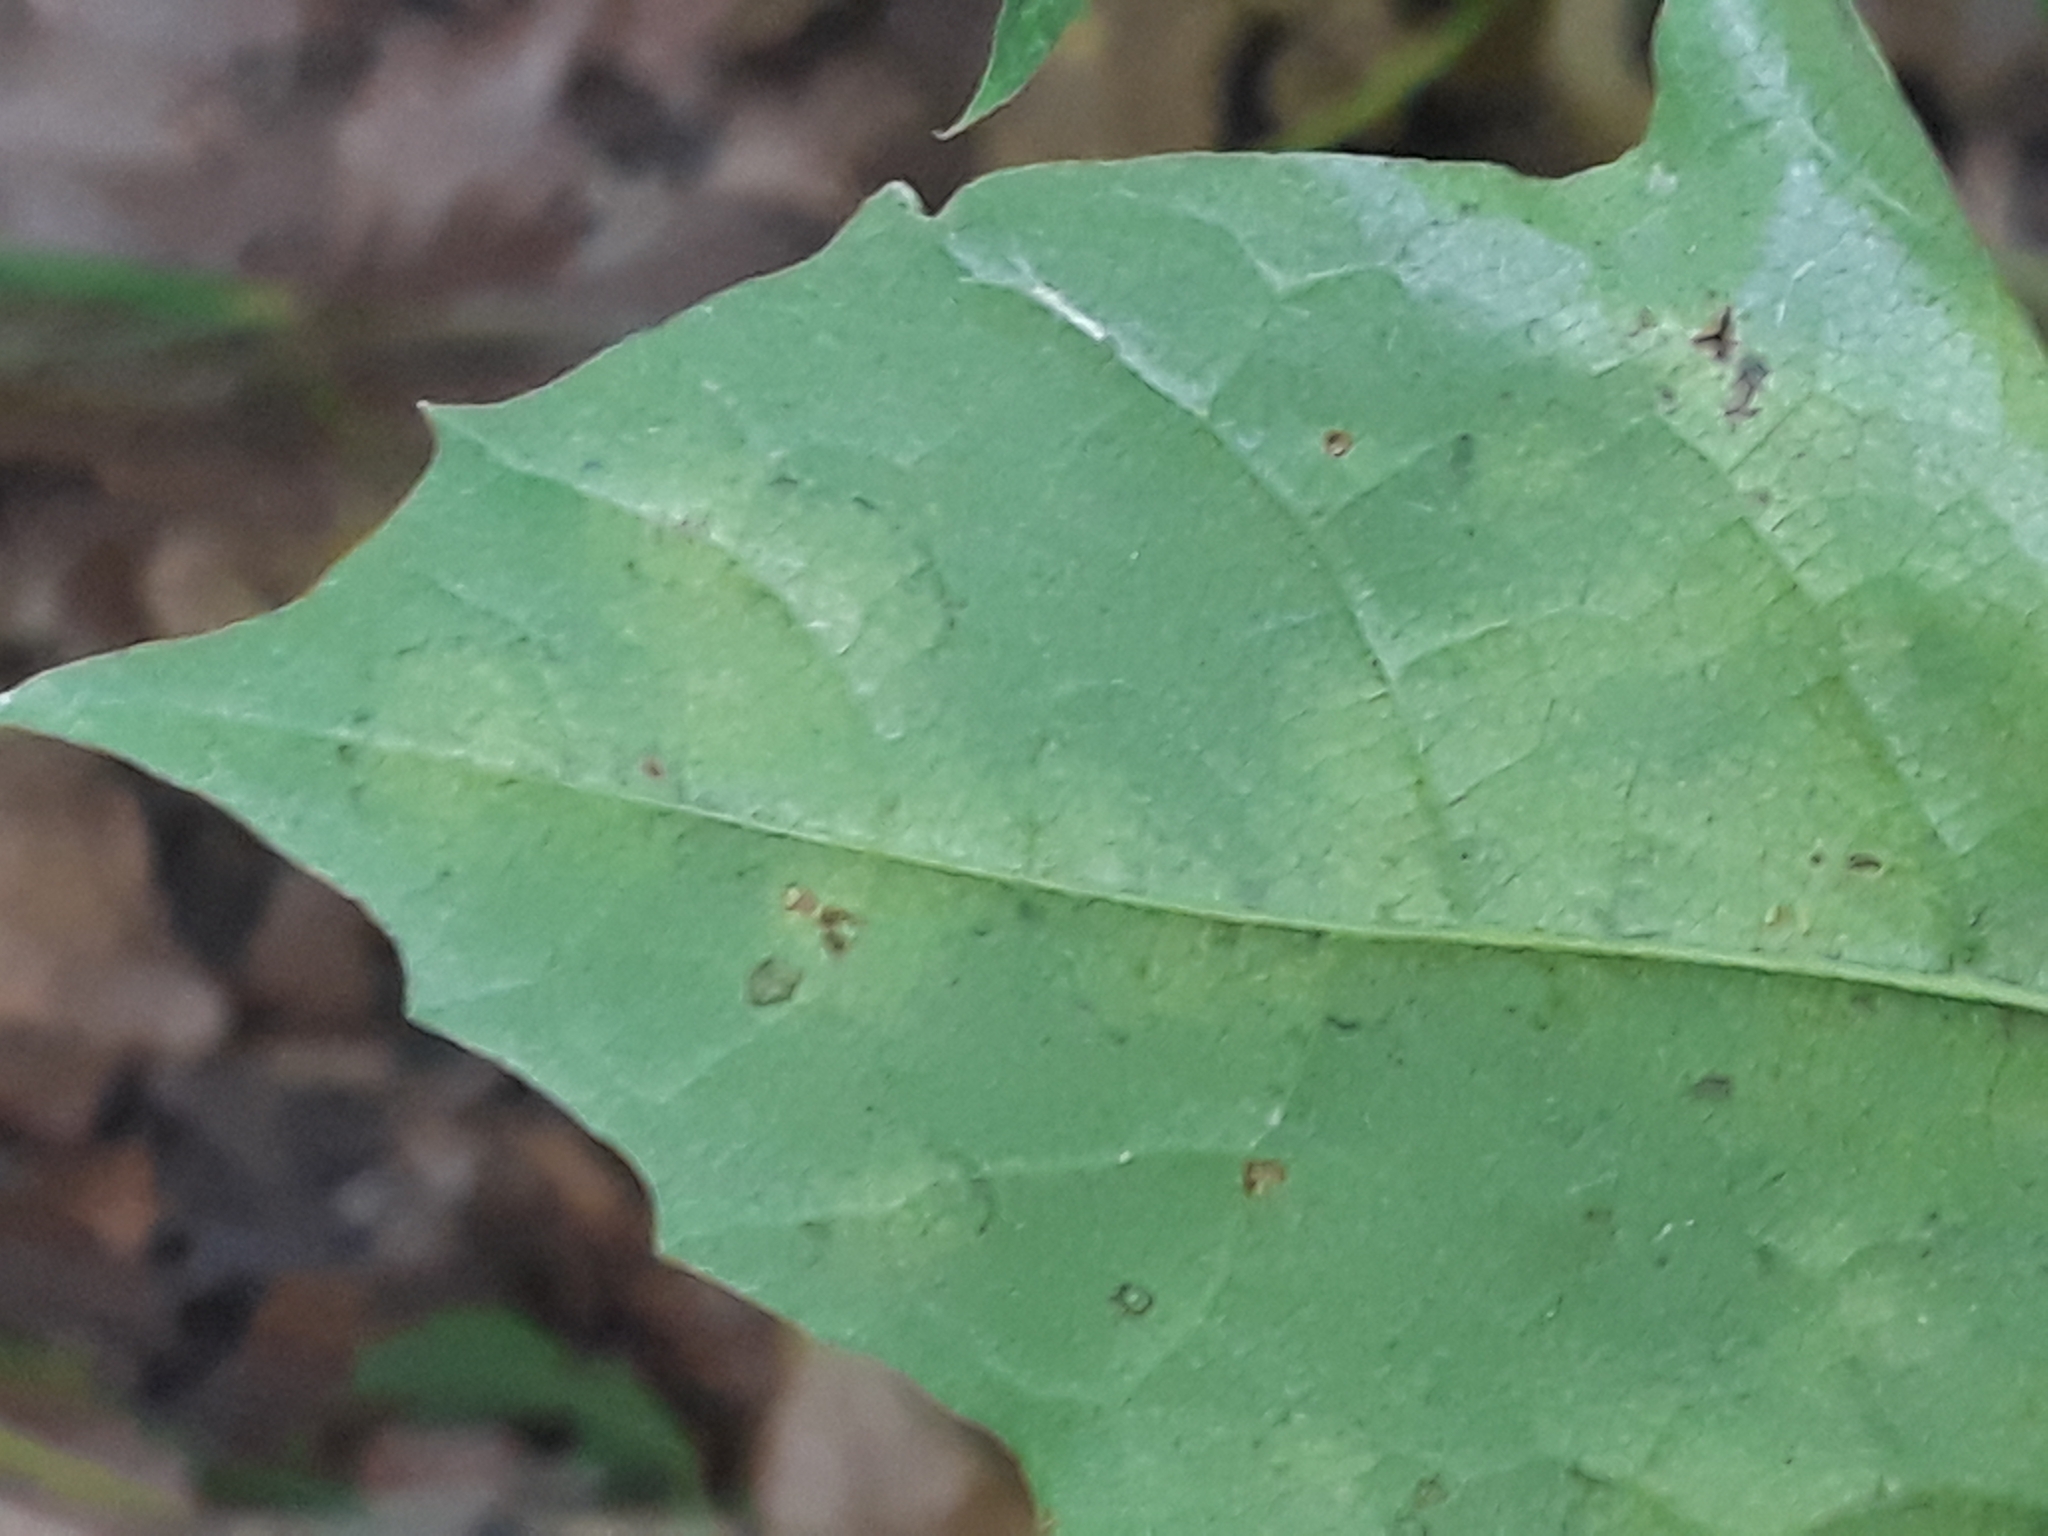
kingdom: Fungi
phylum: Ascomycota
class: Leotiomycetes
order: Helotiales
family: Erysiphaceae
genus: Sawadaea
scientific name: Sawadaea tulasnei
